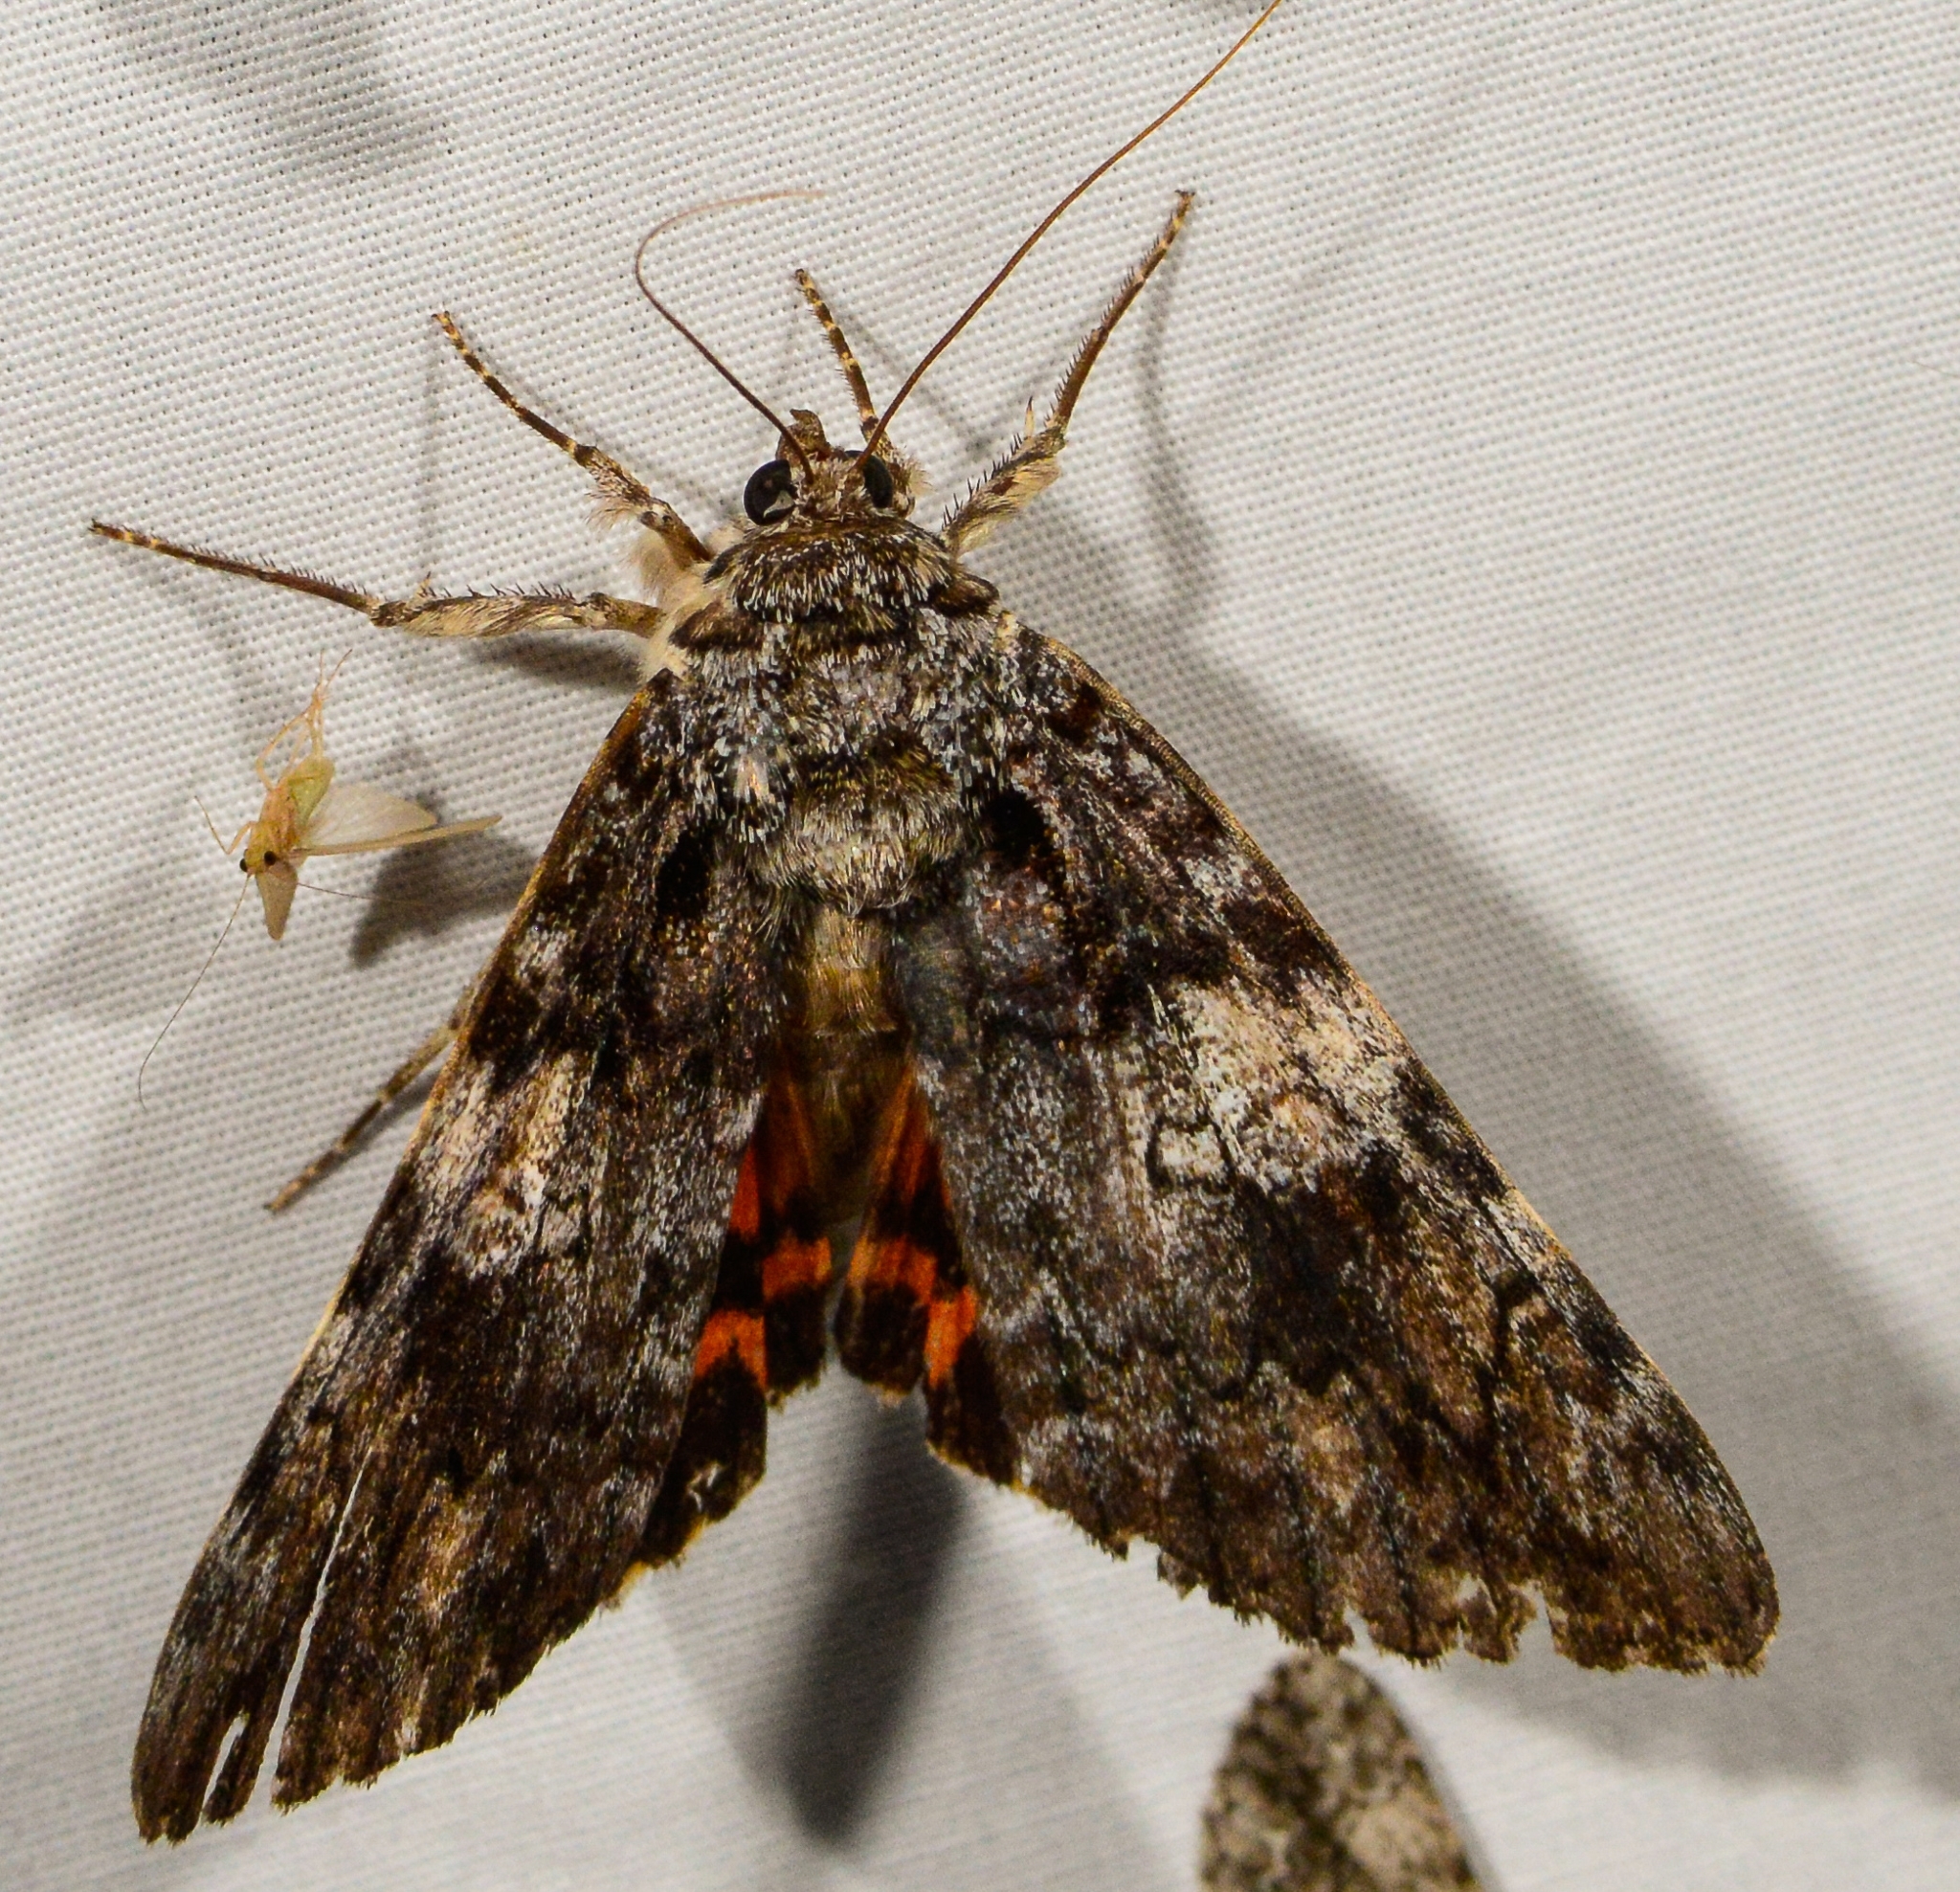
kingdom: Animalia
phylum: Arthropoda
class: Insecta
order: Lepidoptera
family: Erebidae
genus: Catocala
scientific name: Catocala ilia
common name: Ilia underwing
